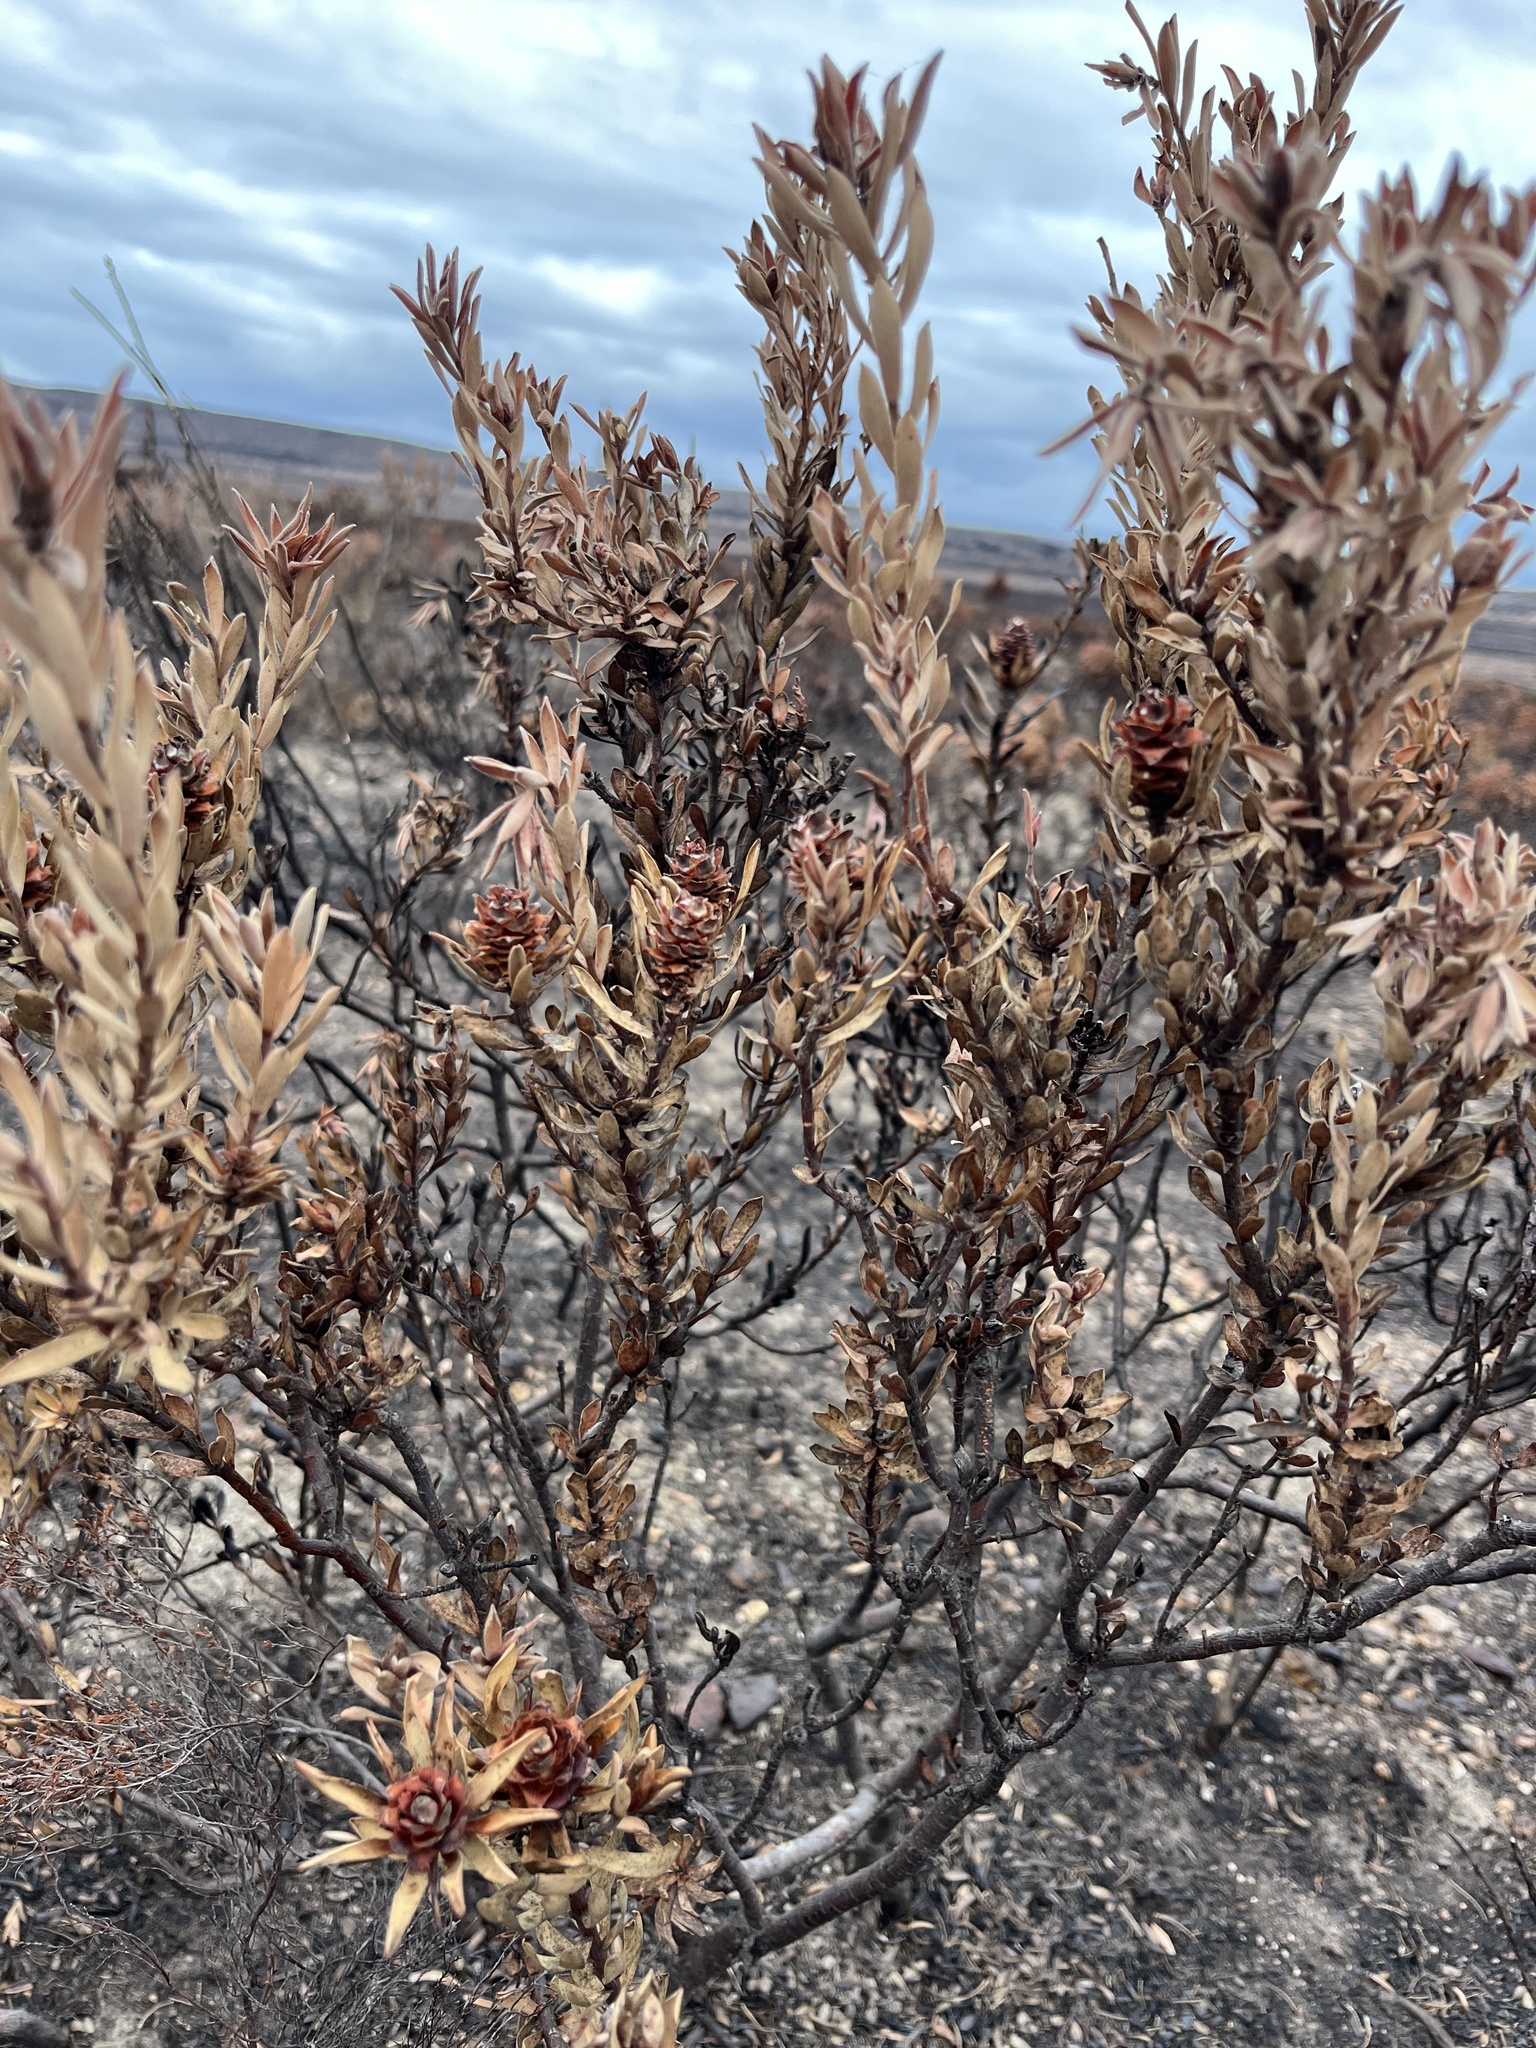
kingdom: Plantae
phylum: Tracheophyta
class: Magnoliopsida
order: Proteales
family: Proteaceae
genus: Leucadendron
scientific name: Leucadendron stelligerum
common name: Agulhas conebush
